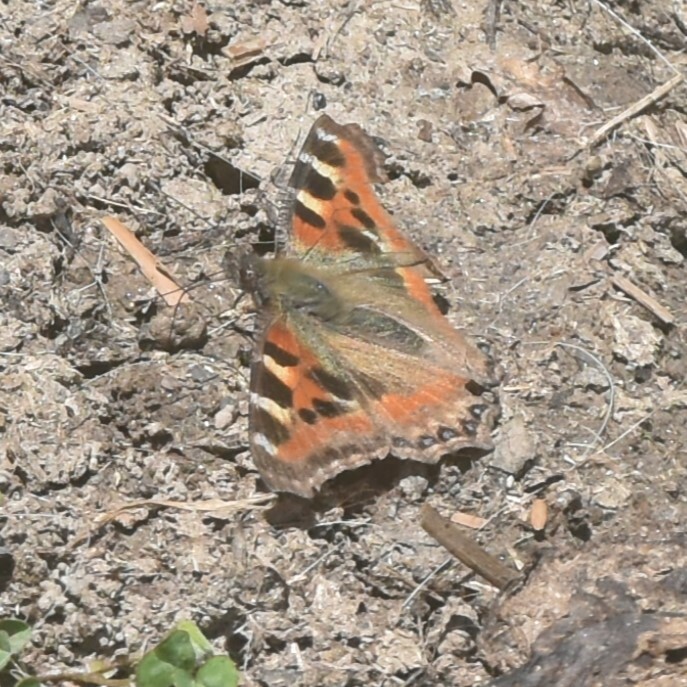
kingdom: Animalia
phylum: Arthropoda
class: Insecta
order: Lepidoptera
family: Nymphalidae
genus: Aglais
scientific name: Aglais caschmirensis
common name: Indian tortoiseshell
